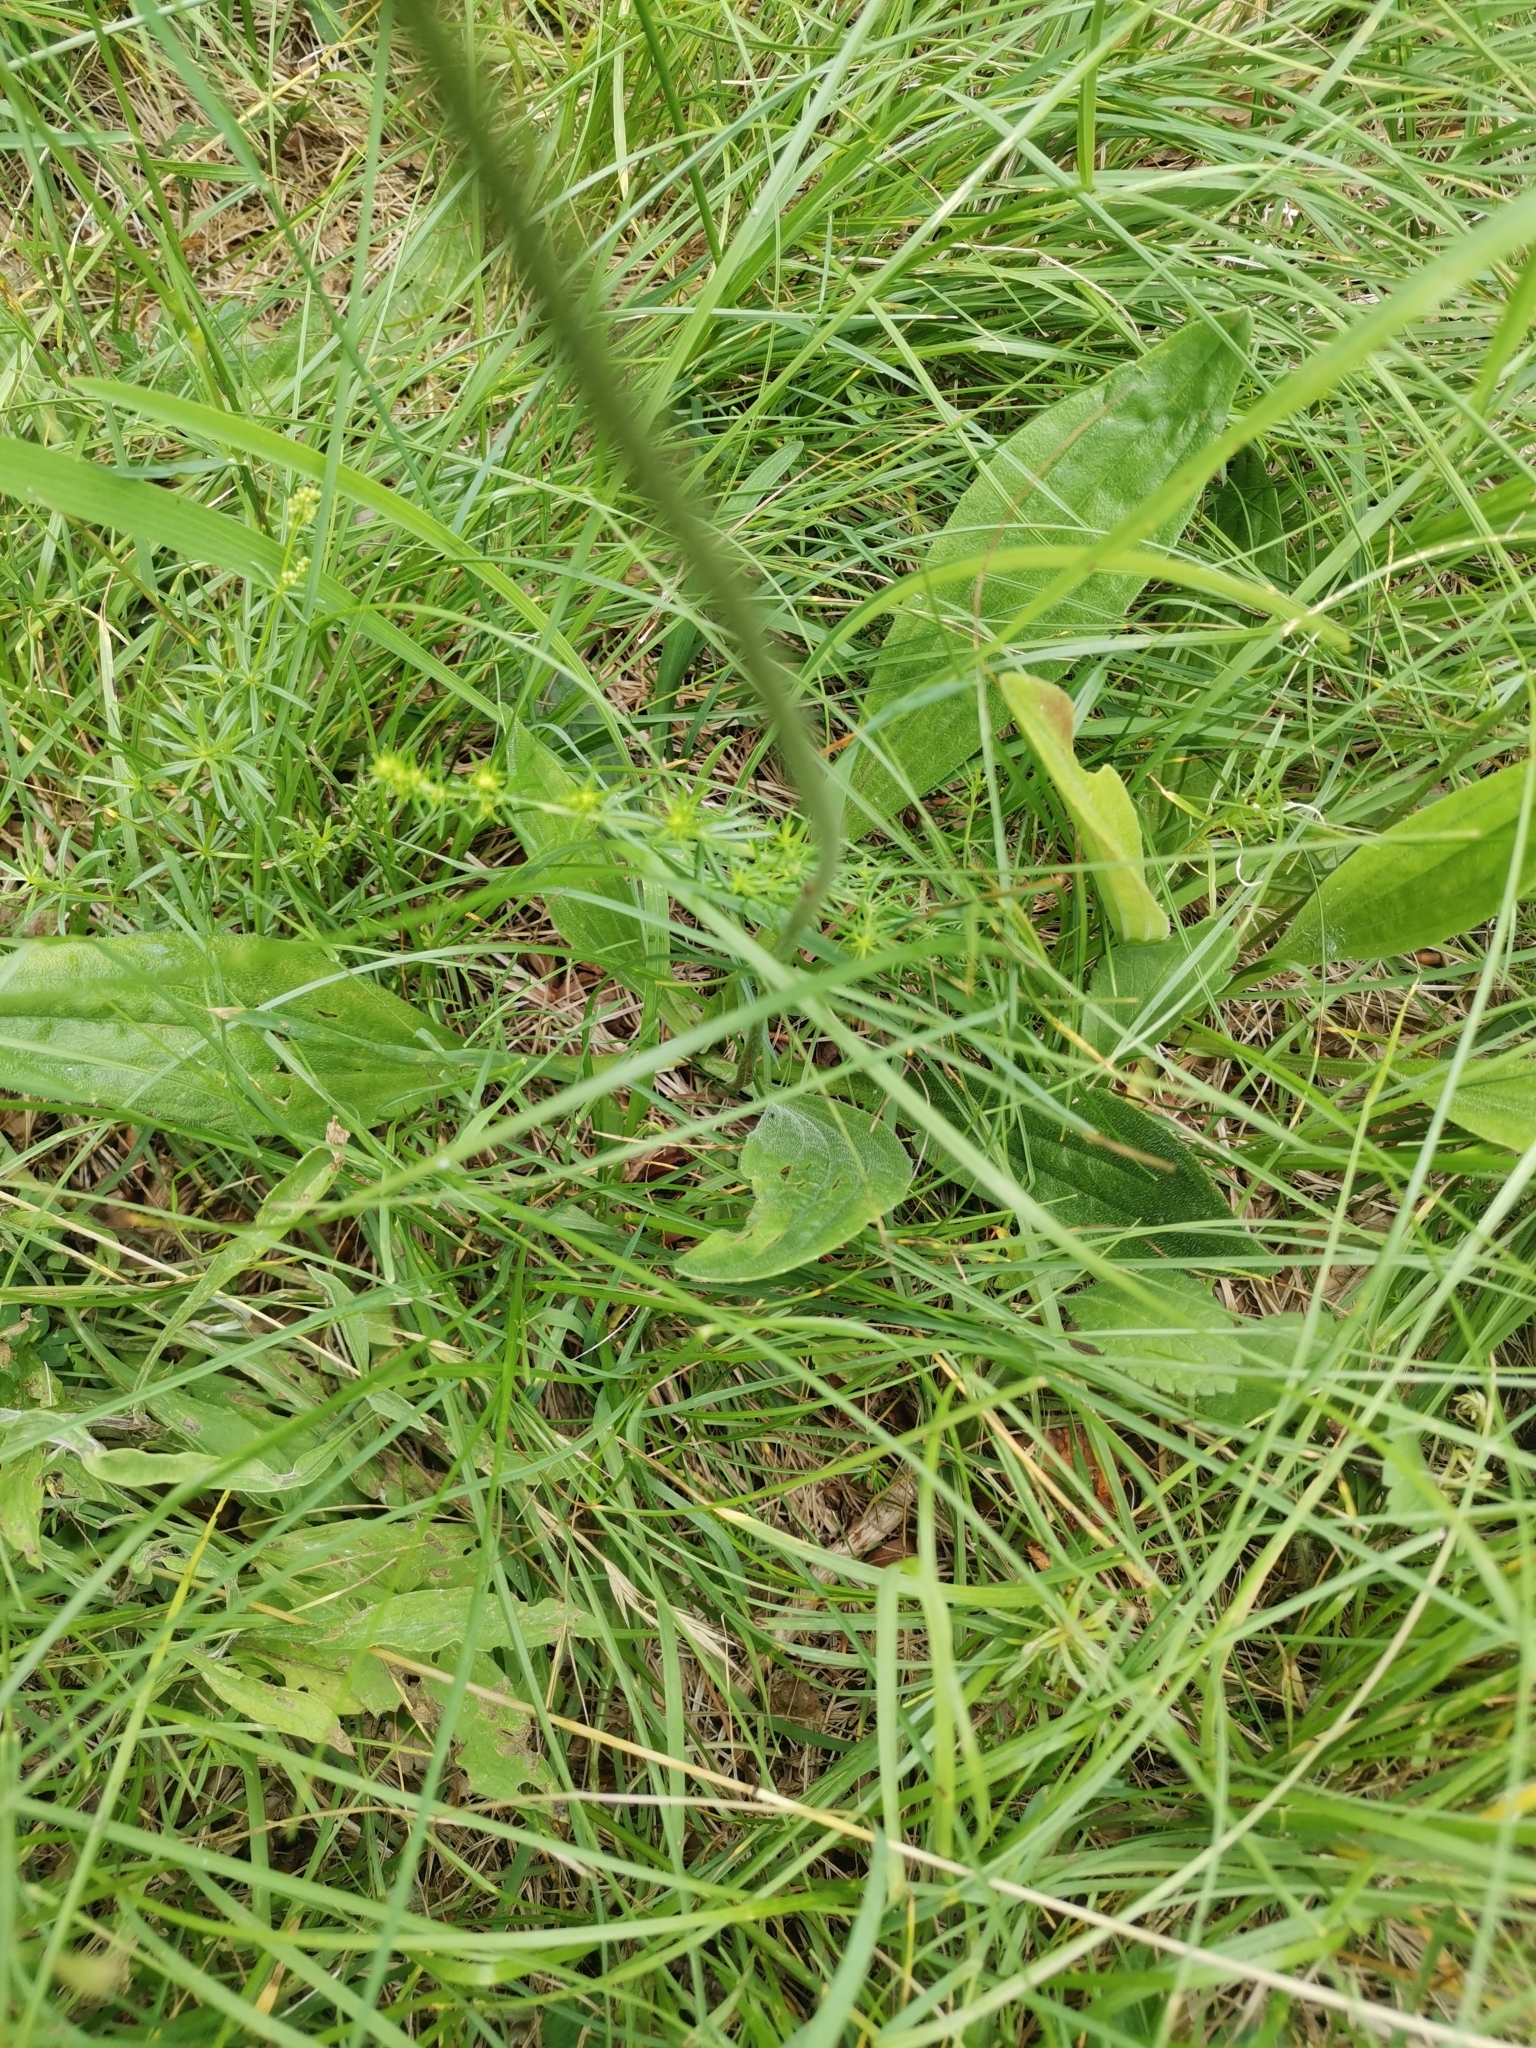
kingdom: Plantae
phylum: Tracheophyta
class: Magnoliopsida
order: Lamiales
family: Plantaginaceae
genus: Plantago
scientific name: Plantago media
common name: Hoary plantain
